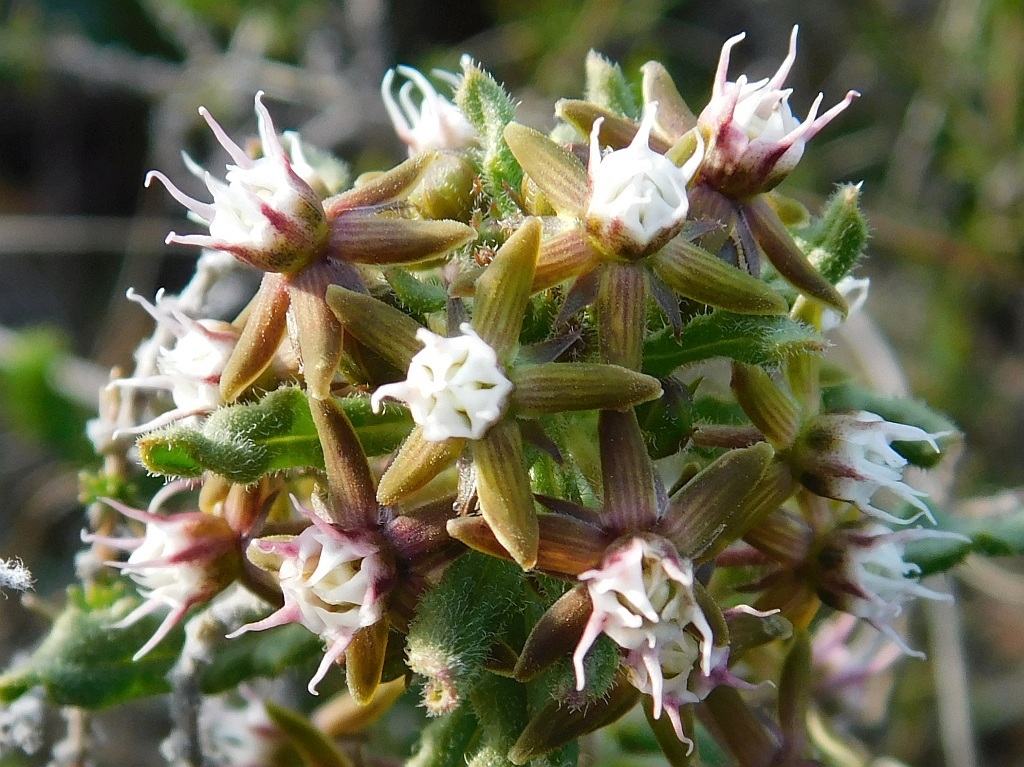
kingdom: Plantae
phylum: Tracheophyta
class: Magnoliopsida
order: Gentianales
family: Apocynaceae
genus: Aspidoglossum
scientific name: Aspidoglossum heterophyllum
